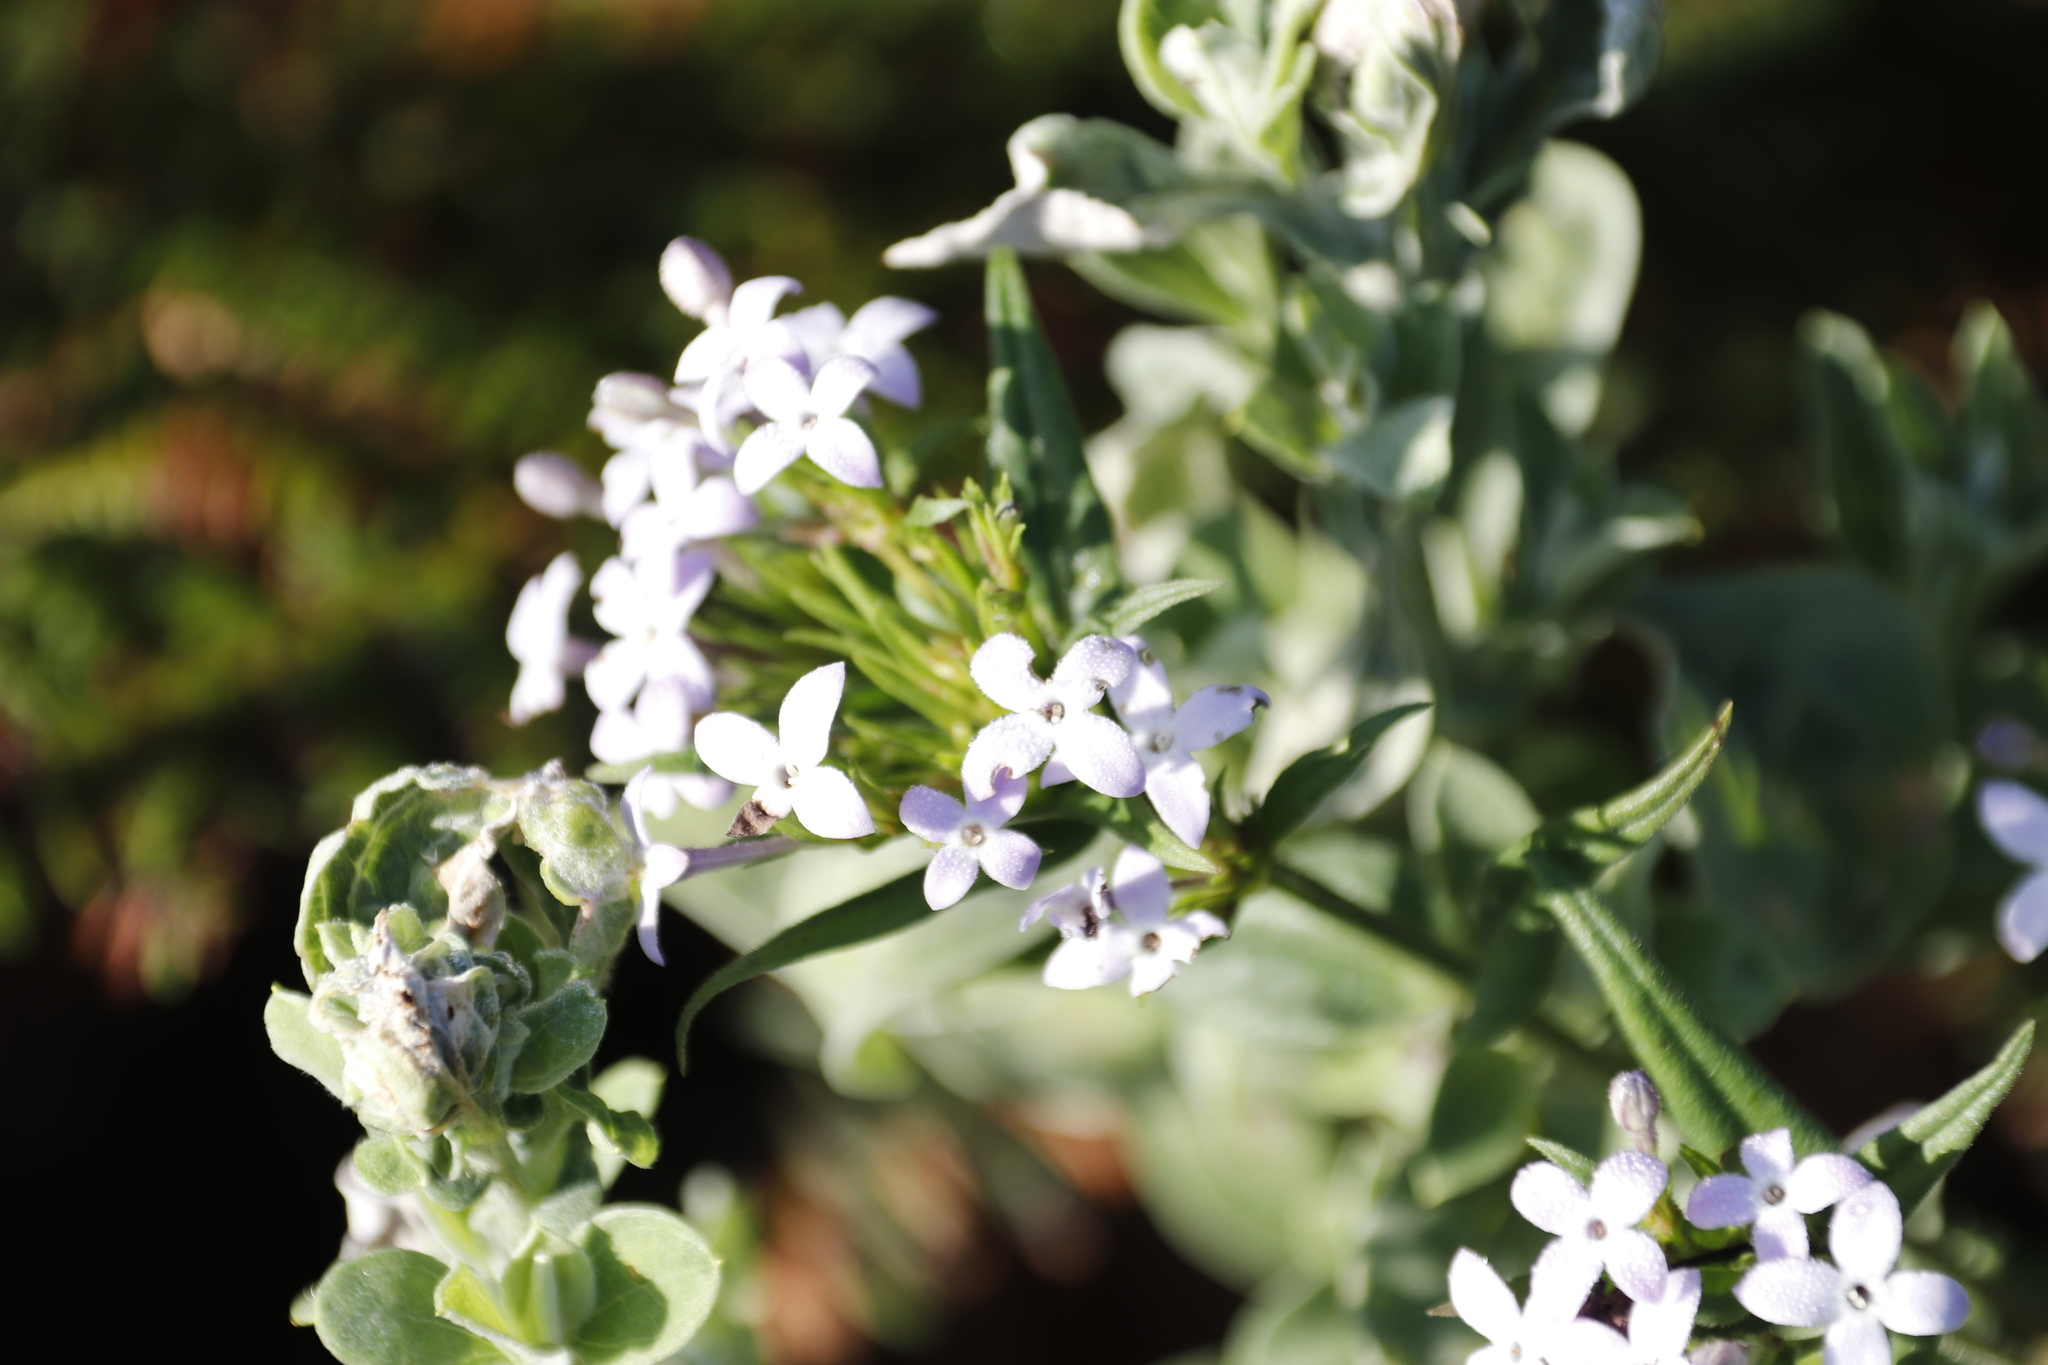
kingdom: Plantae
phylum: Tracheophyta
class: Magnoliopsida
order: Gentianales
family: Rubiaceae
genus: Conostomium
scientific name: Conostomium natalense
